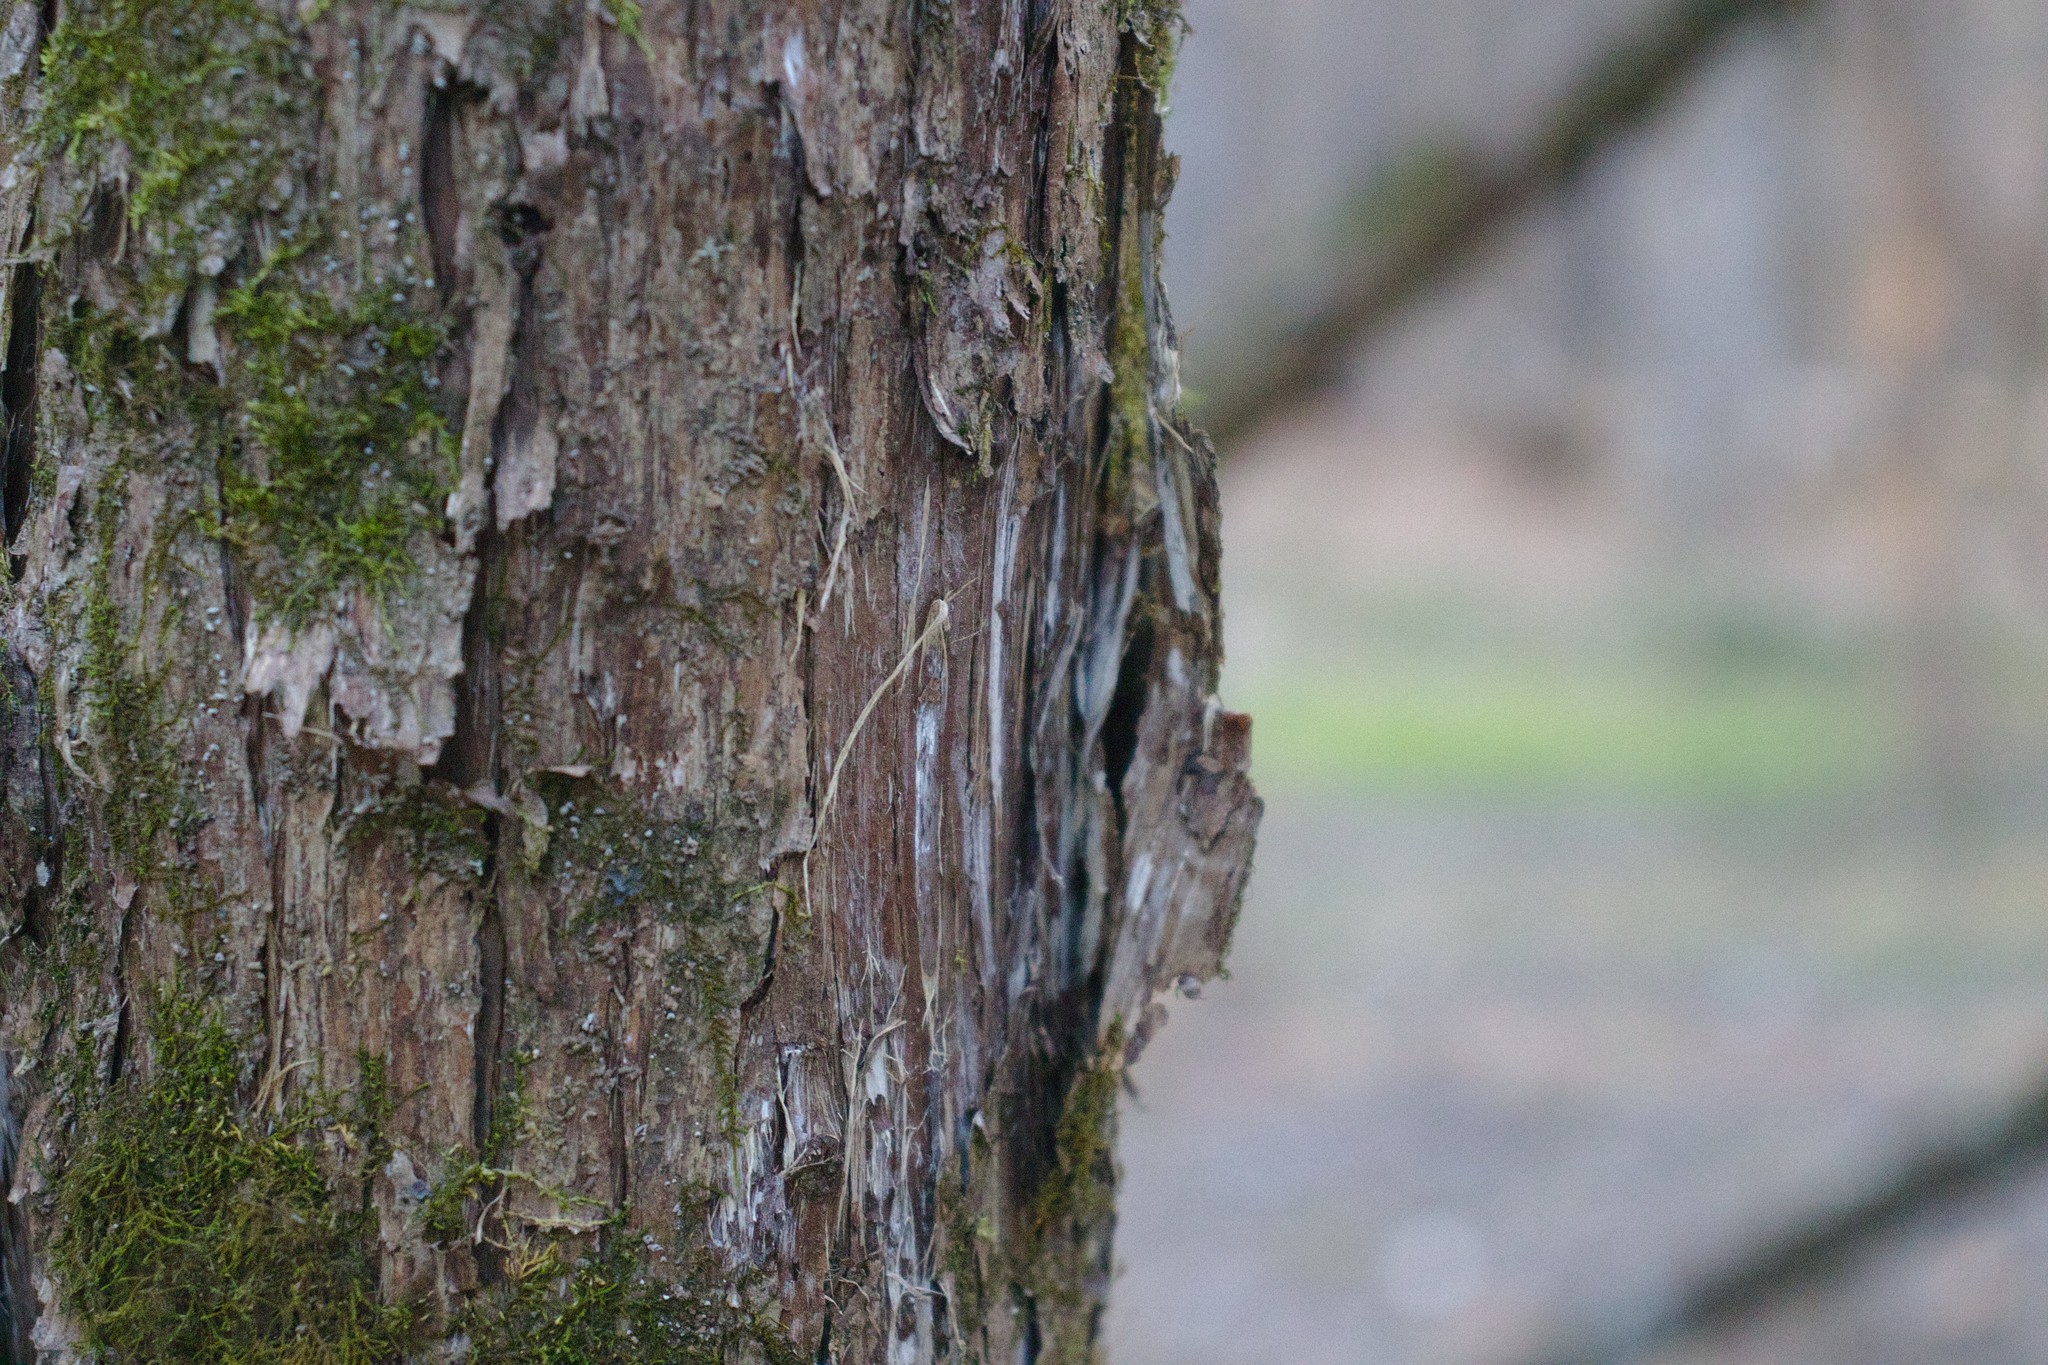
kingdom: Plantae
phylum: Tracheophyta
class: Pinopsida
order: Pinales
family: Cupressaceae
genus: Juniperus
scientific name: Juniperus virginiana
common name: Red juniper
